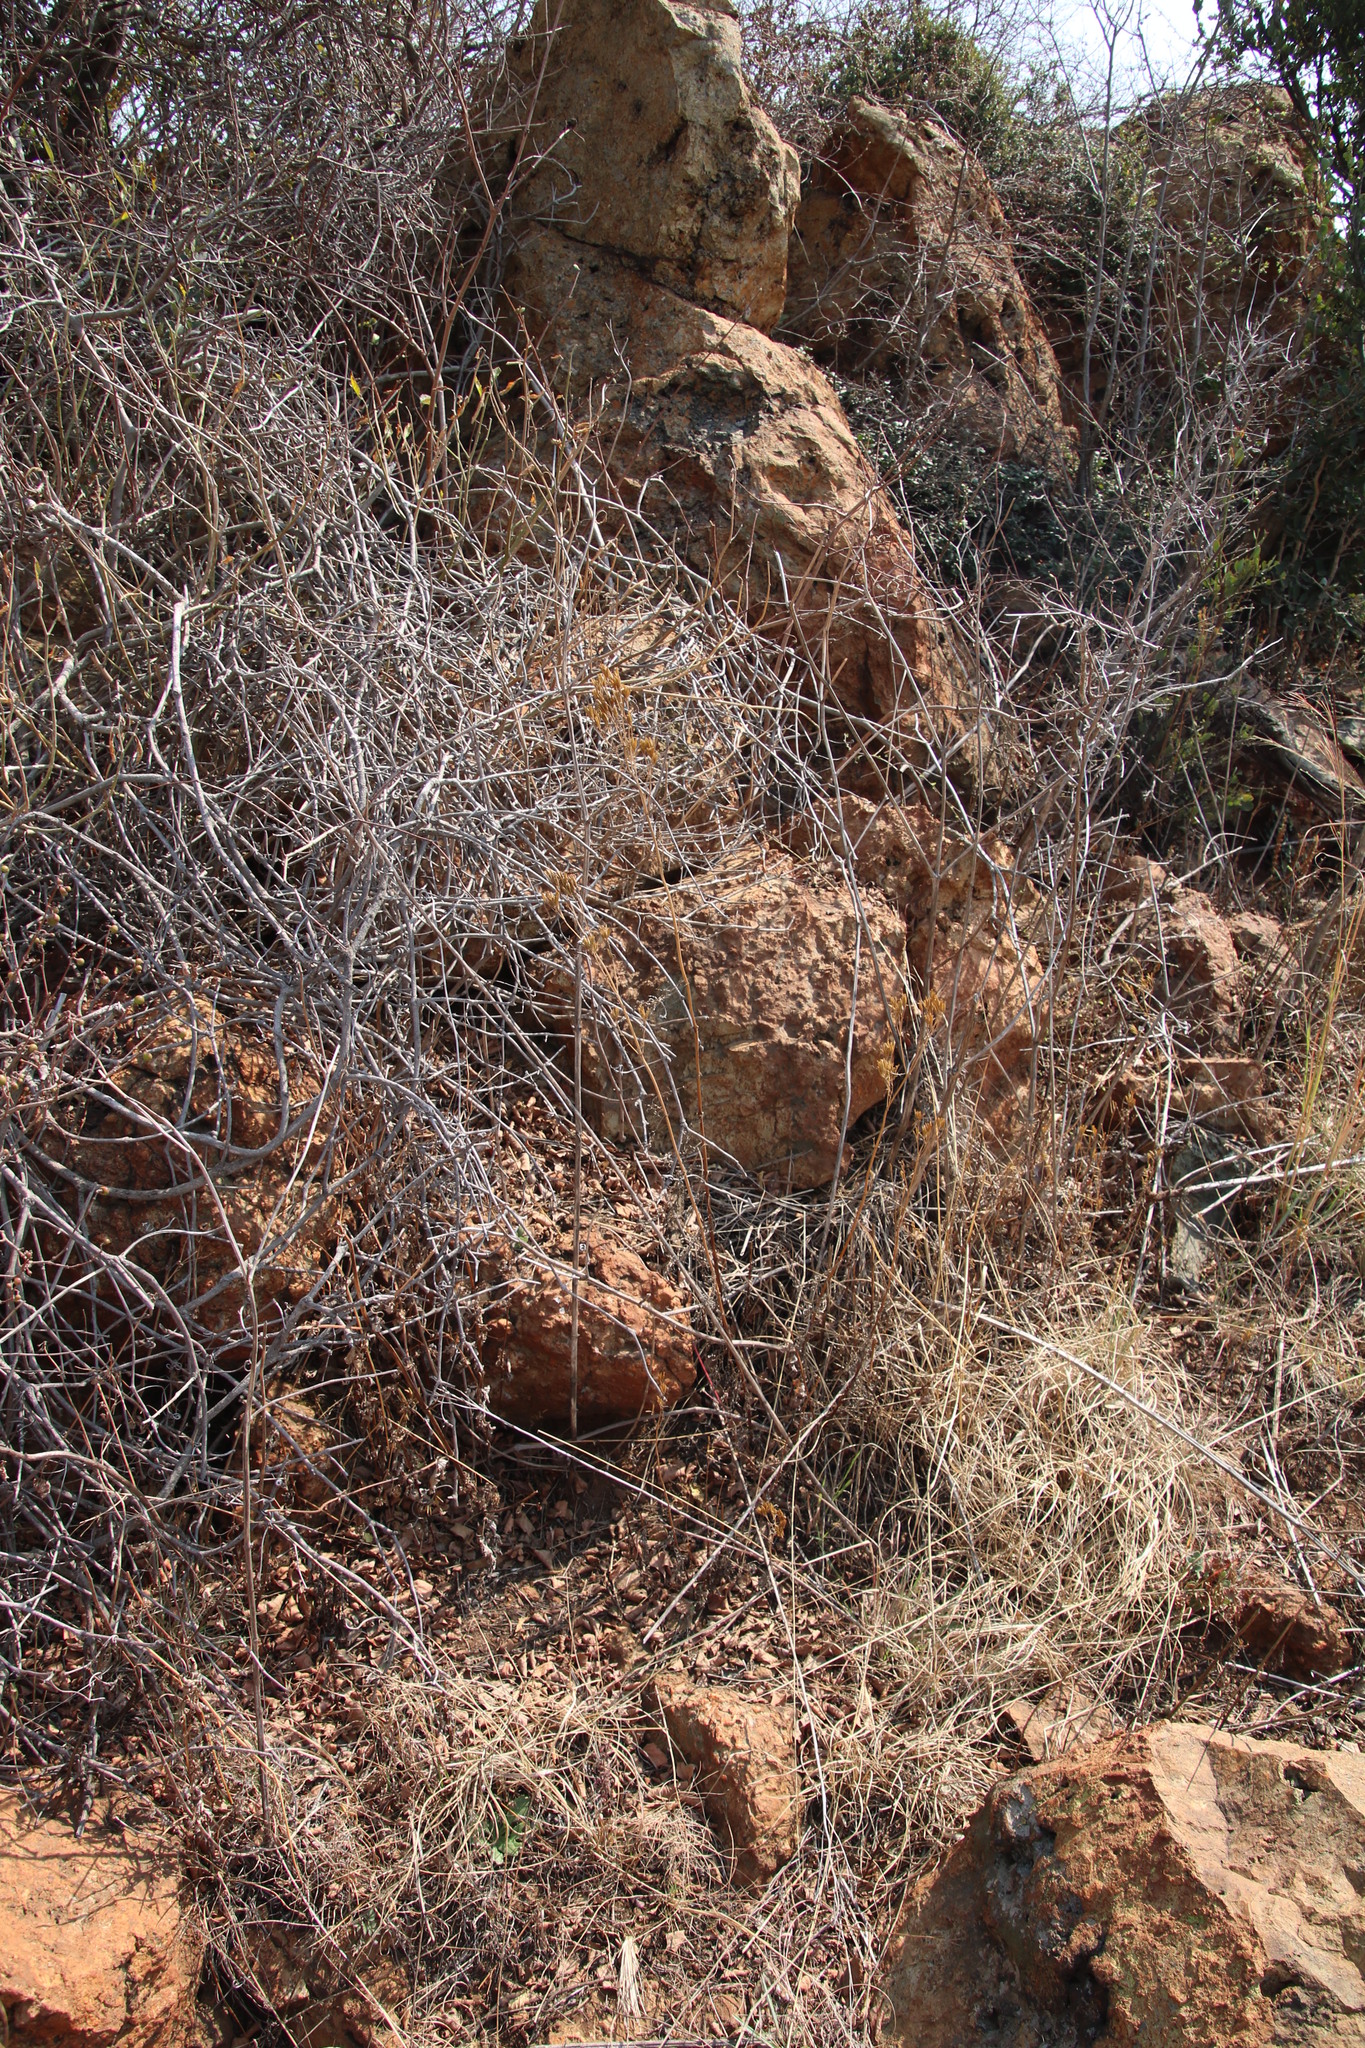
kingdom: Plantae
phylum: Tracheophyta
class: Magnoliopsida
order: Asterales
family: Asteraceae
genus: Tagetes
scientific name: Tagetes minuta
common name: Muster john henry
